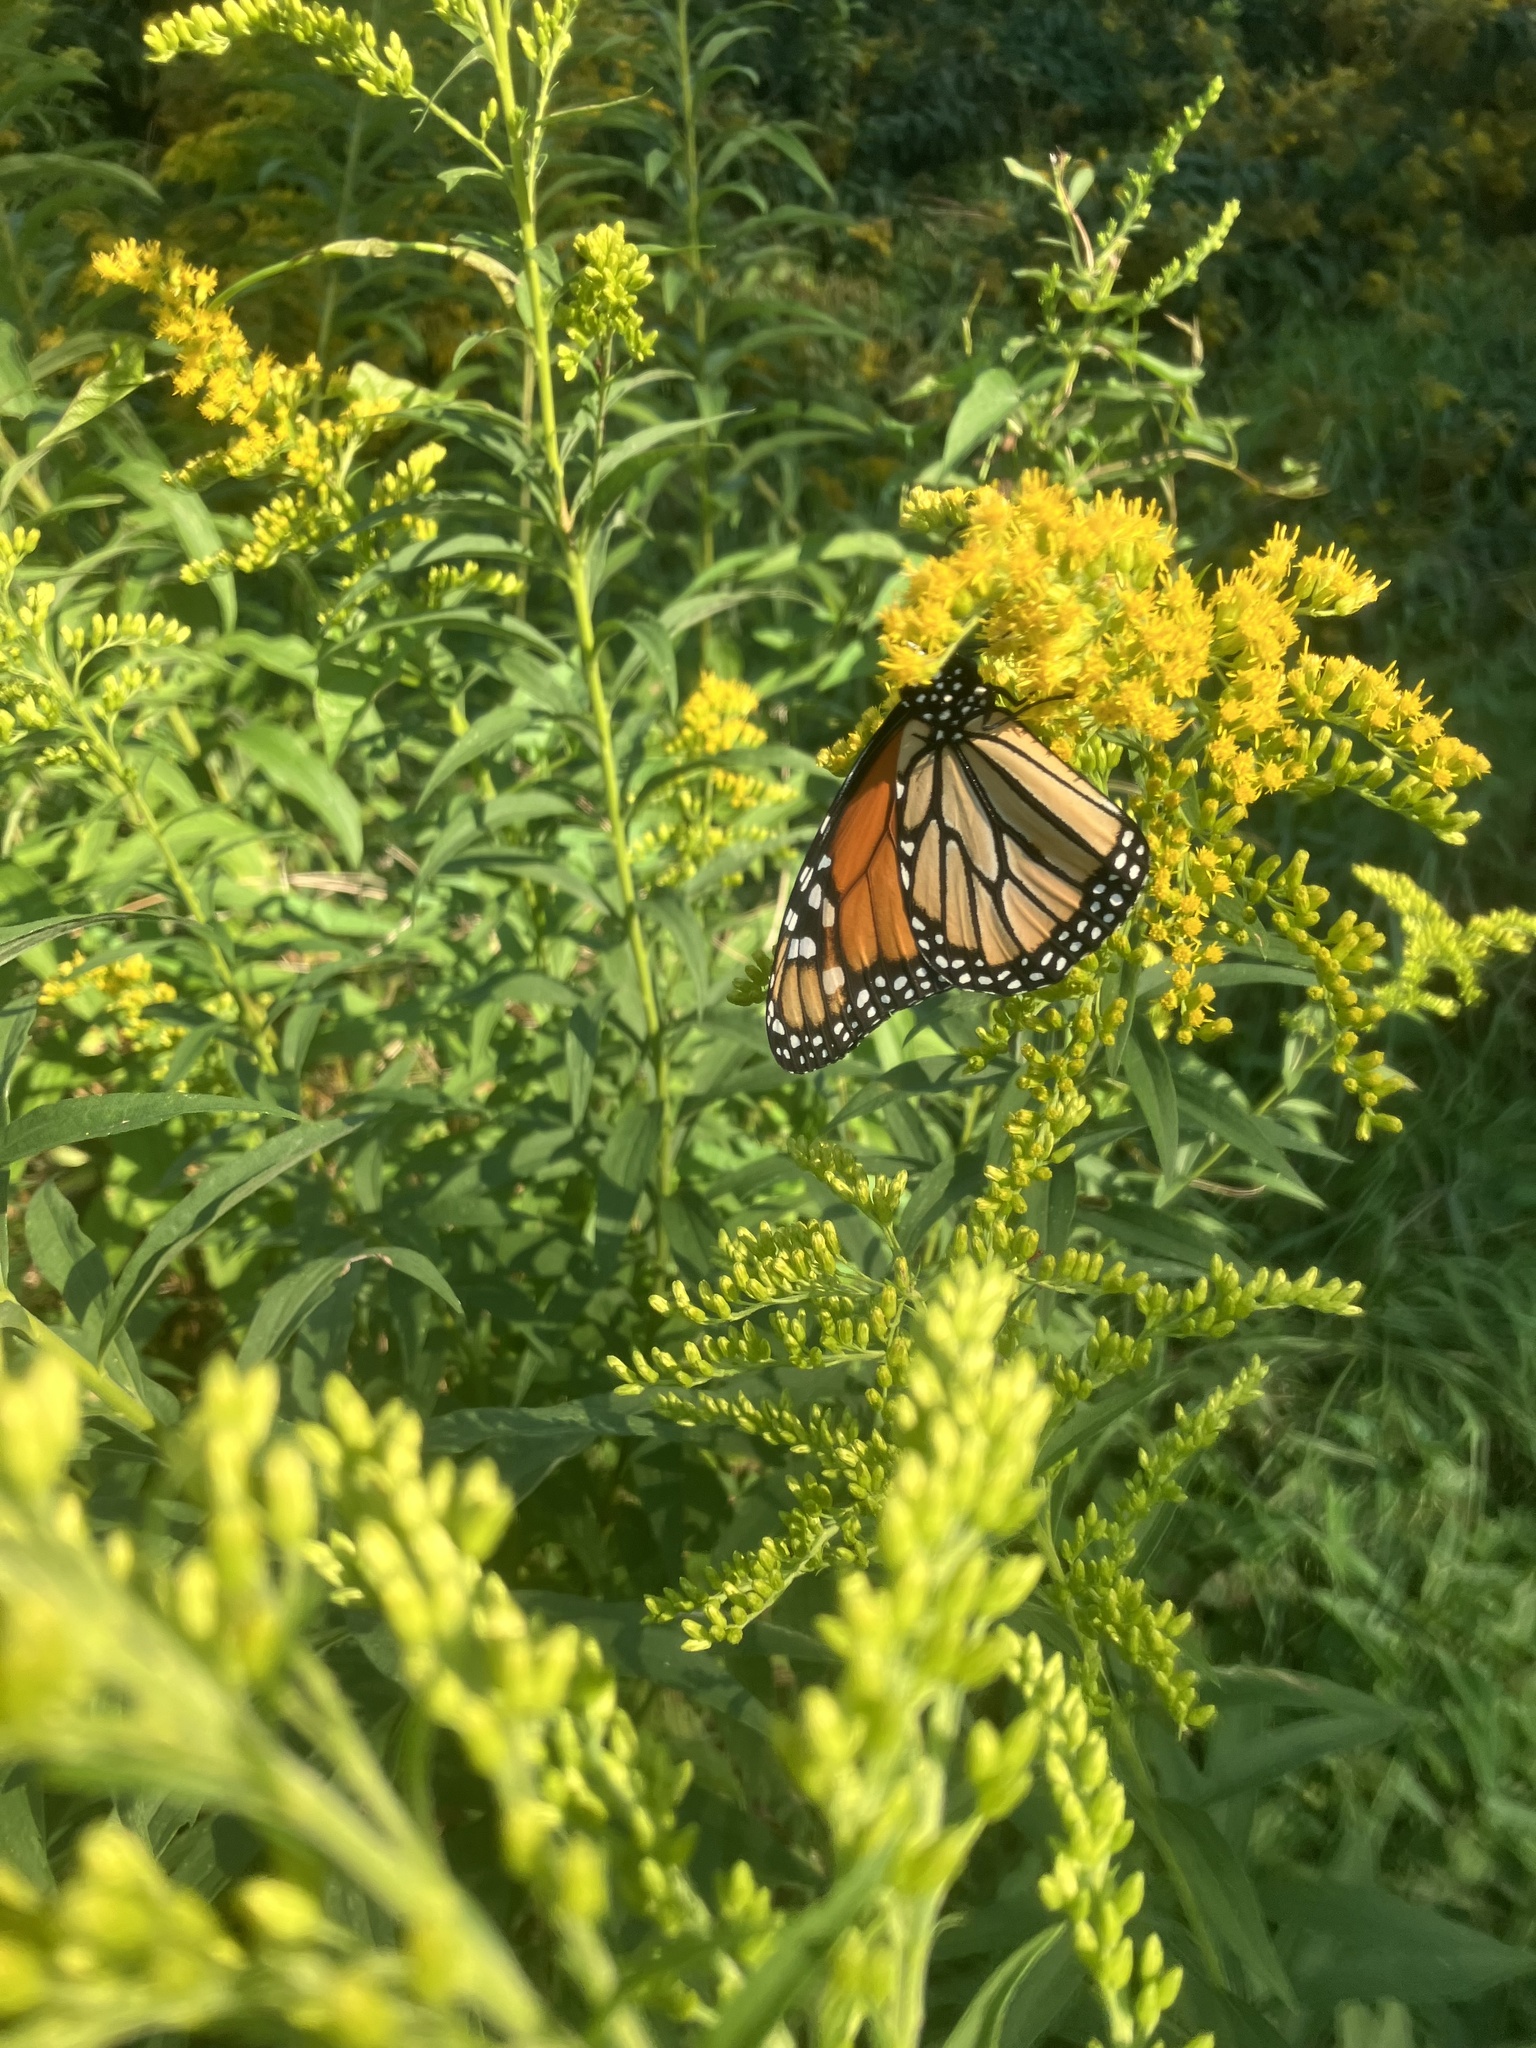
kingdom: Animalia
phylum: Arthropoda
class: Insecta
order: Lepidoptera
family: Nymphalidae
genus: Danaus
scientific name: Danaus plexippus
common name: Monarch
